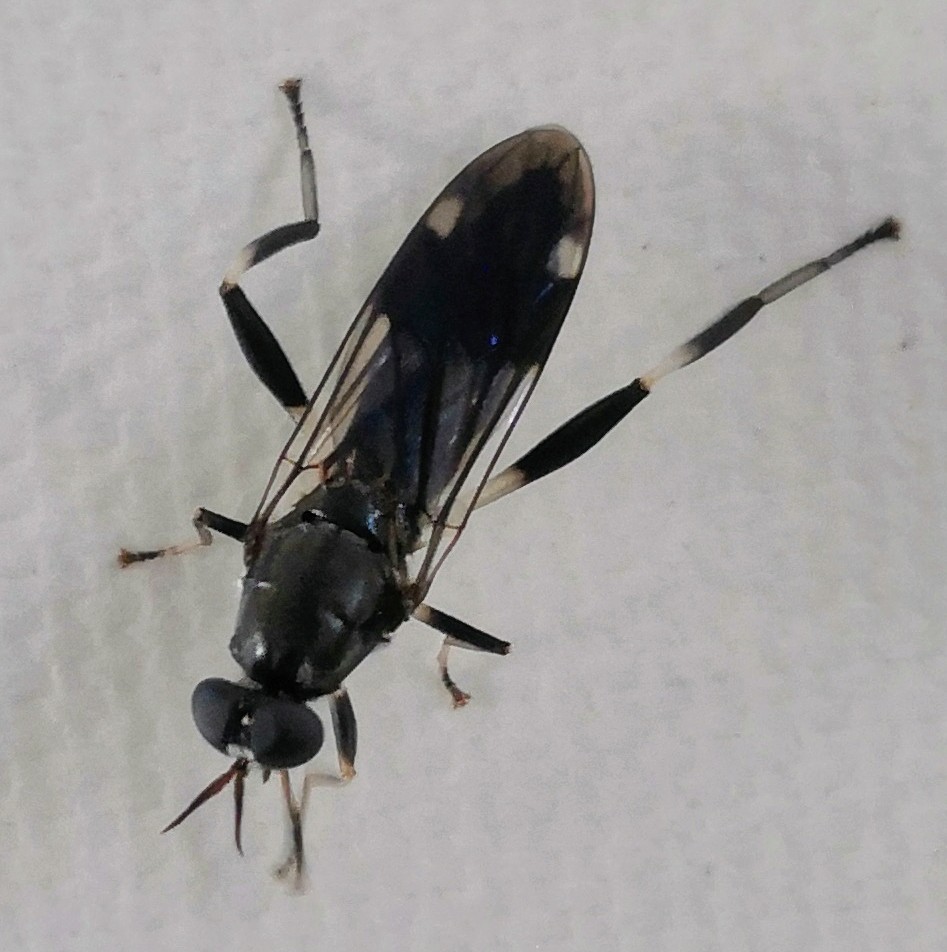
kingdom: Animalia
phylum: Arthropoda
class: Insecta
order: Diptera
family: Stratiomyidae
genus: Exaireta
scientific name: Exaireta spinigera
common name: Blue soldier fly
